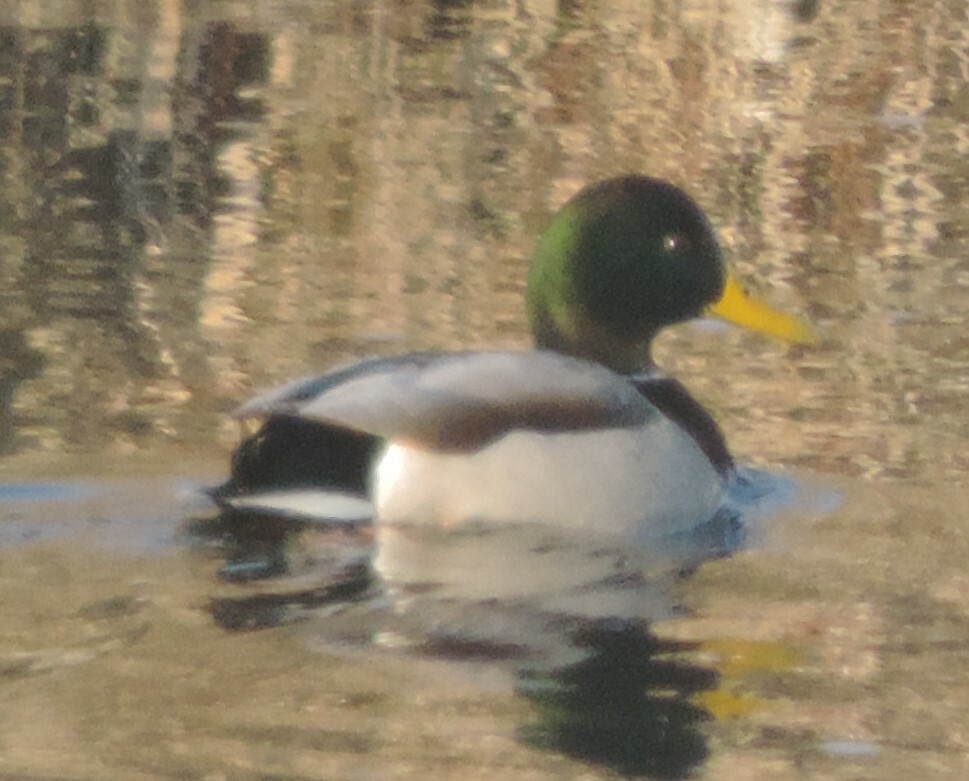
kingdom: Animalia
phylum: Chordata
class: Aves
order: Anseriformes
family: Anatidae
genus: Anas
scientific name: Anas platyrhynchos
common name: Mallard
